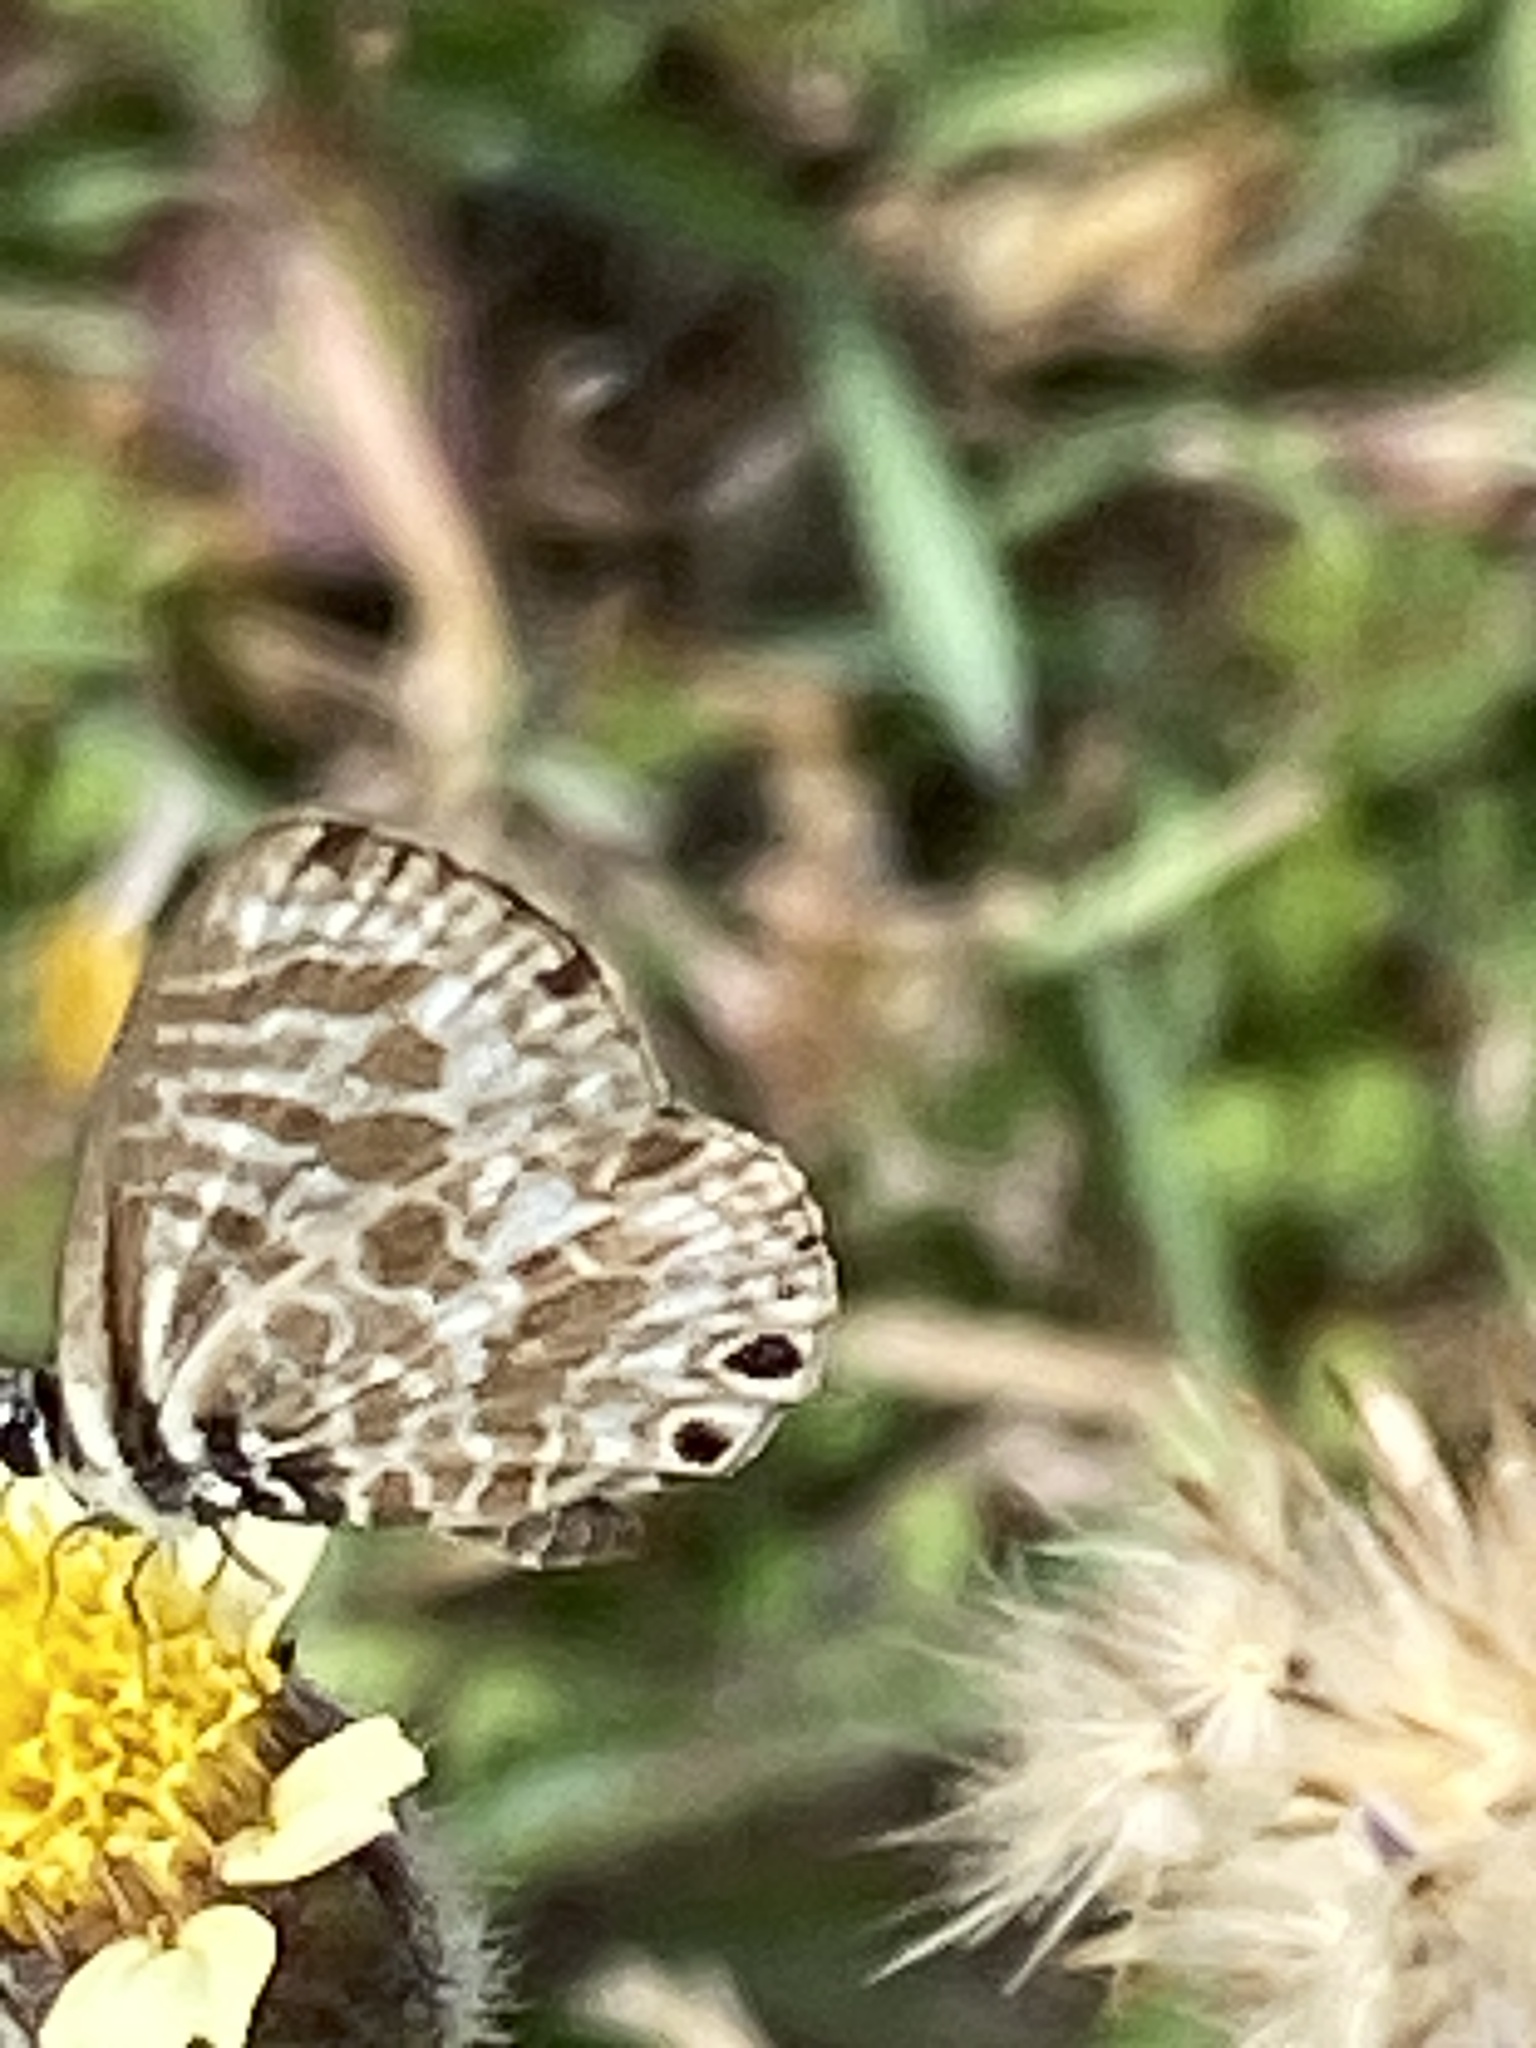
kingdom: Animalia
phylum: Arthropoda
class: Insecta
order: Lepidoptera
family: Lycaenidae
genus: Leptotes
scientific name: Leptotes plinius
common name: Zebra blue
